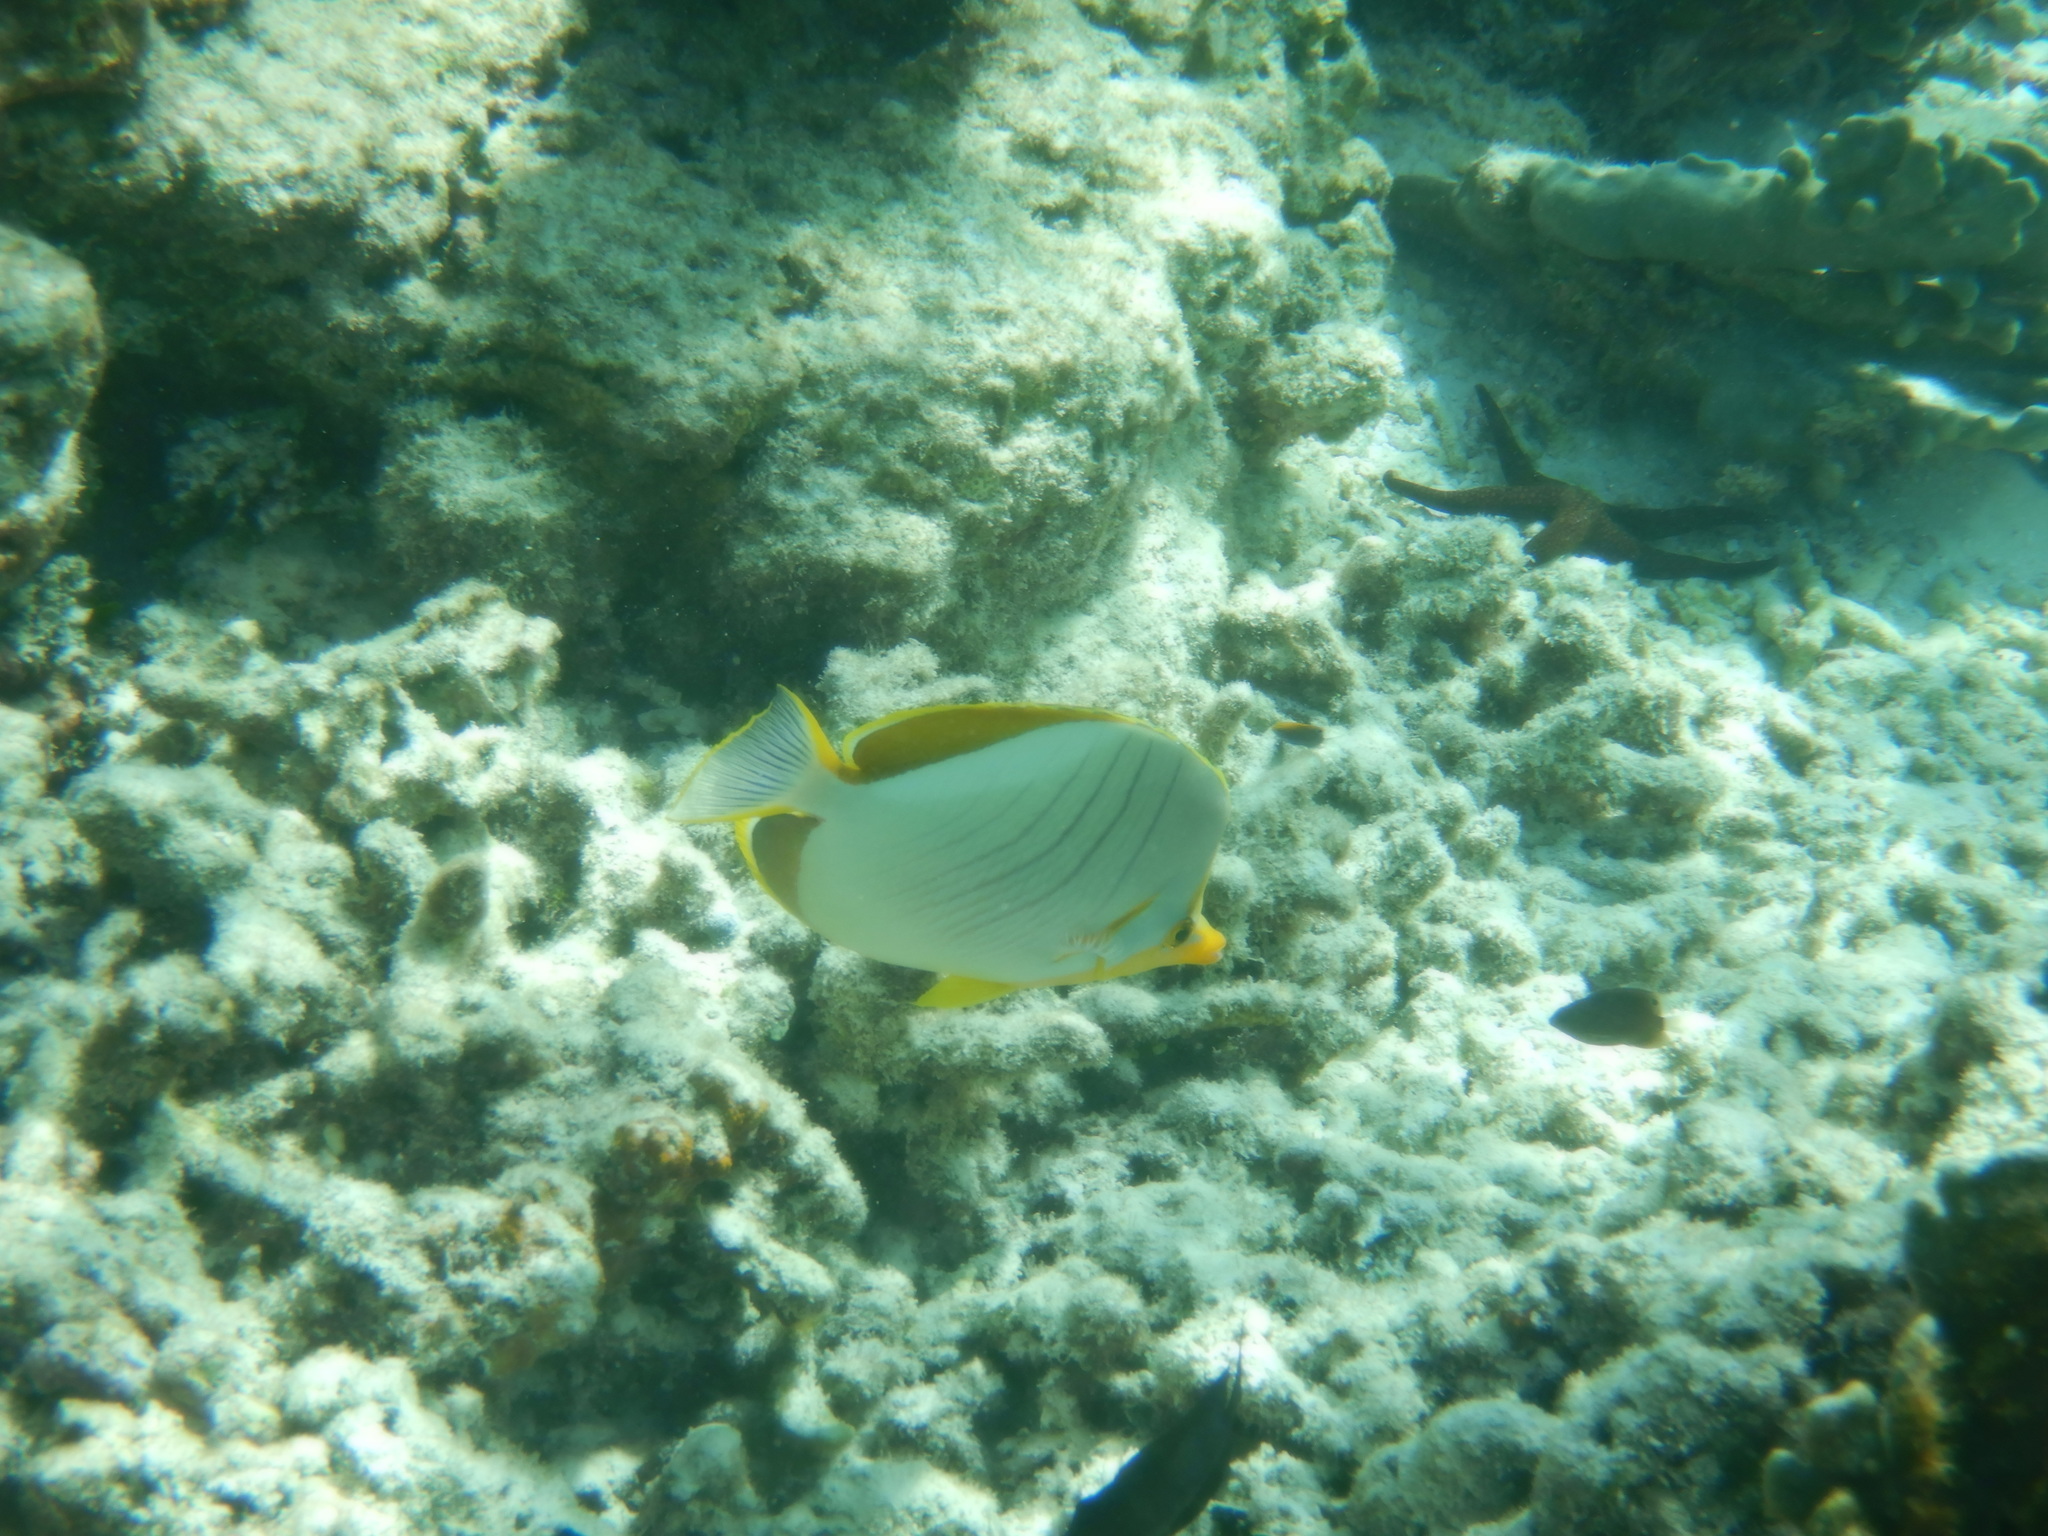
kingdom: Animalia
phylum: Chordata
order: Perciformes
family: Chaetodontidae
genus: Chaetodon
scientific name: Chaetodon xanthocephalus
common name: Yellowhead butterflyfish
